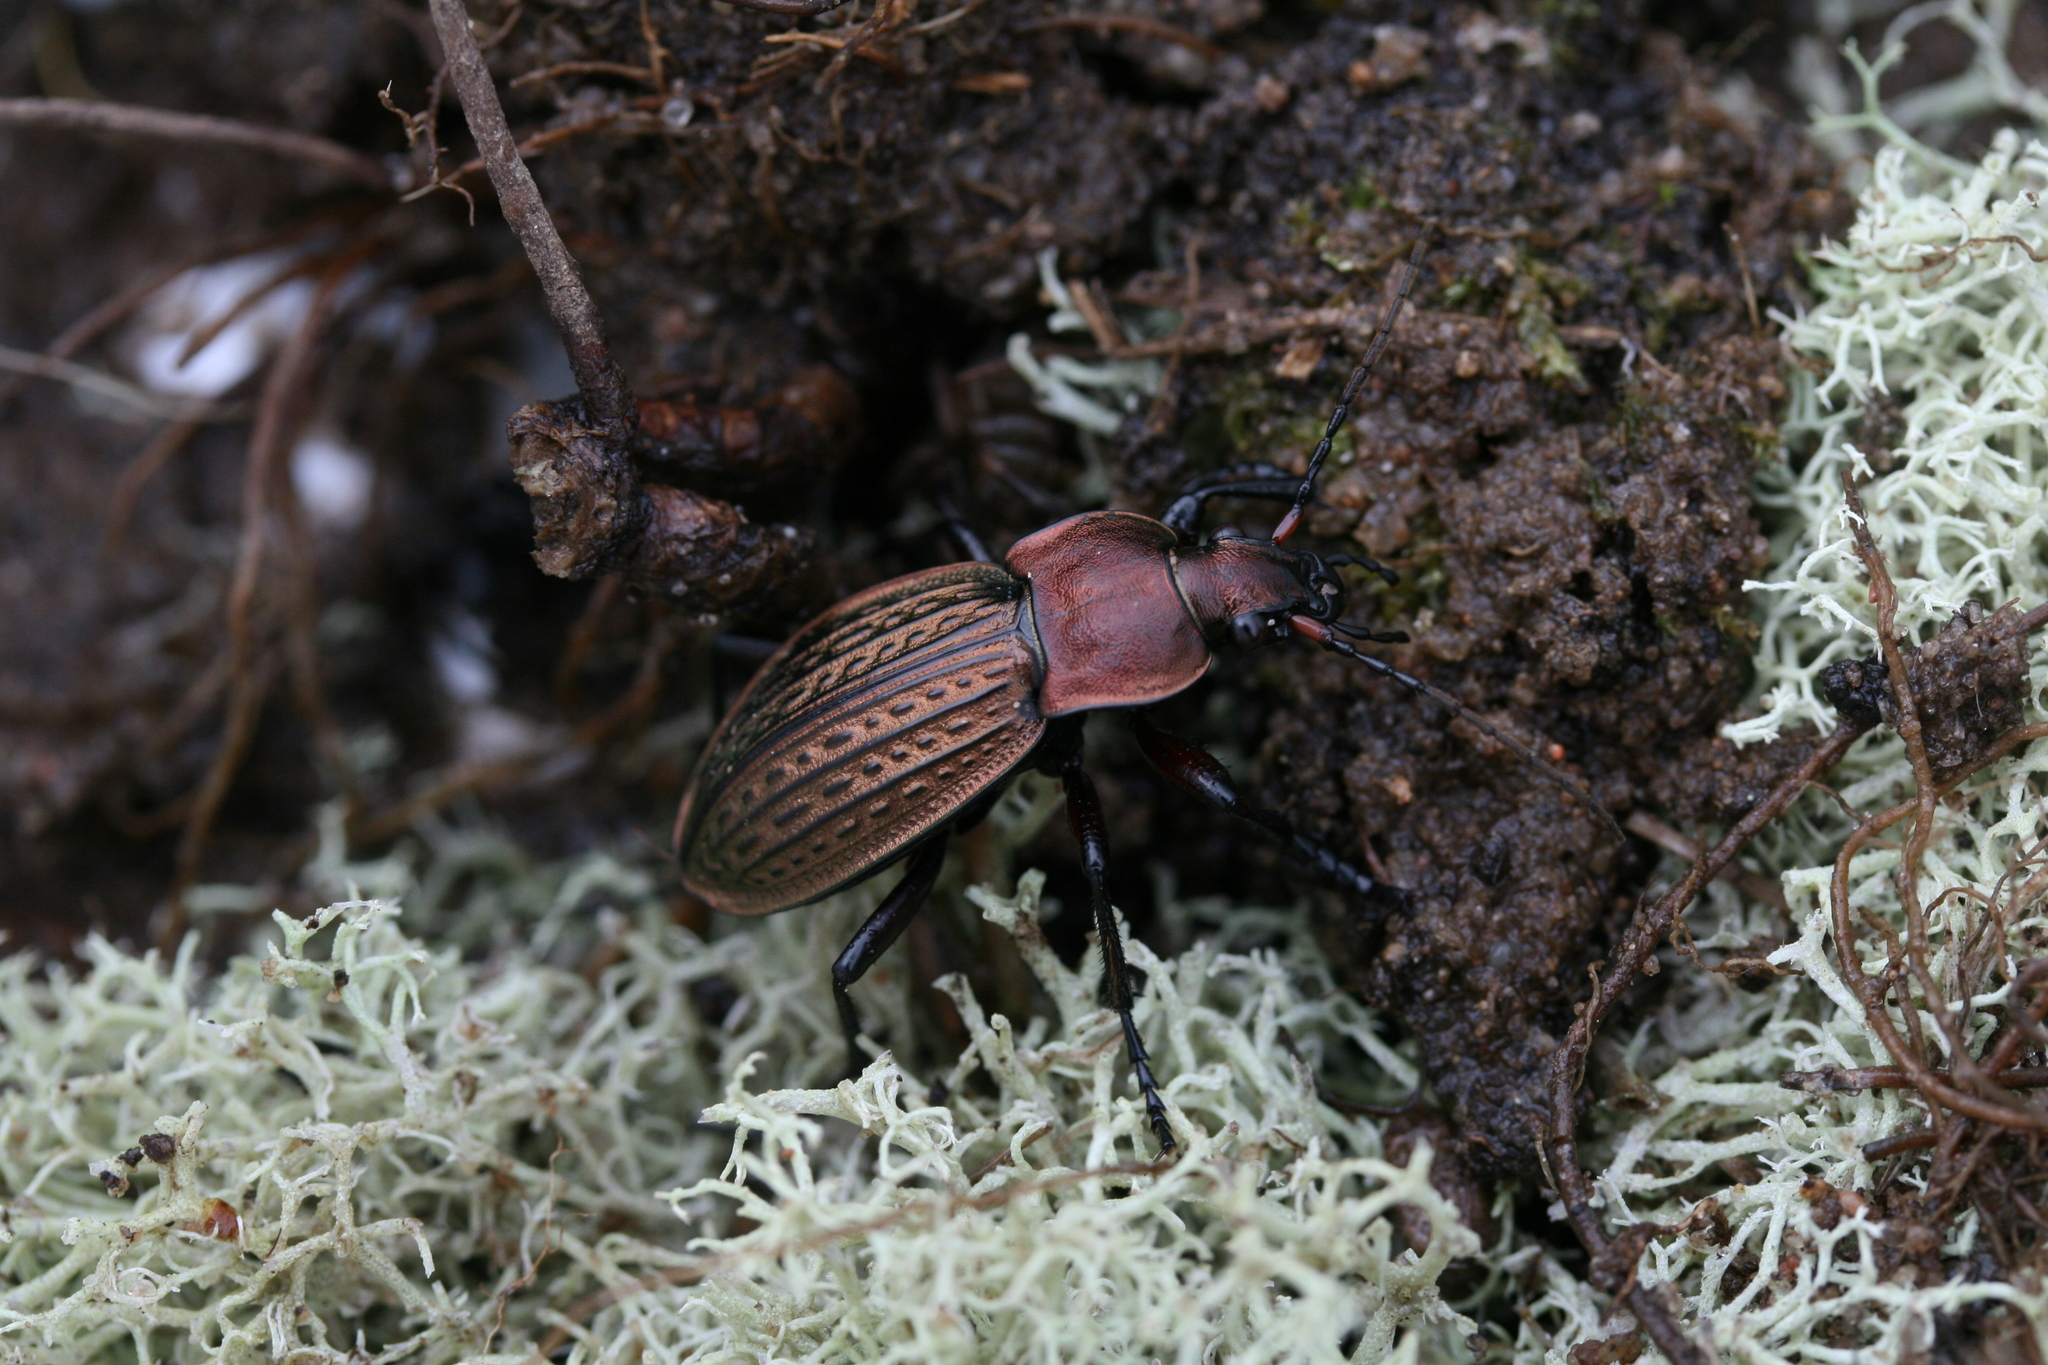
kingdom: Animalia
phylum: Arthropoda
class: Insecta
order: Coleoptera
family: Carabidae
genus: Carabus
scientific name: Carabus cancellatus
